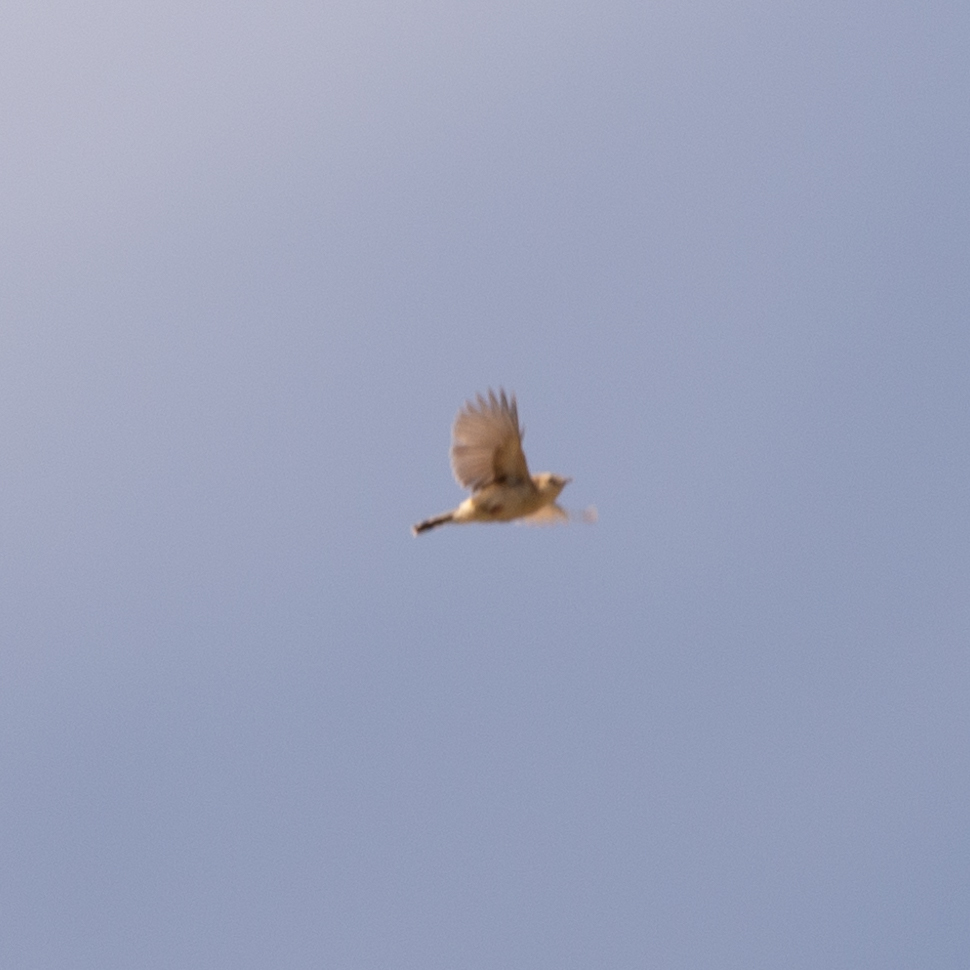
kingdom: Animalia
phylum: Chordata
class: Aves
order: Passeriformes
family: Cisticolidae
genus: Cisticola
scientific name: Cisticola juncidis
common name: Zitting cisticola
